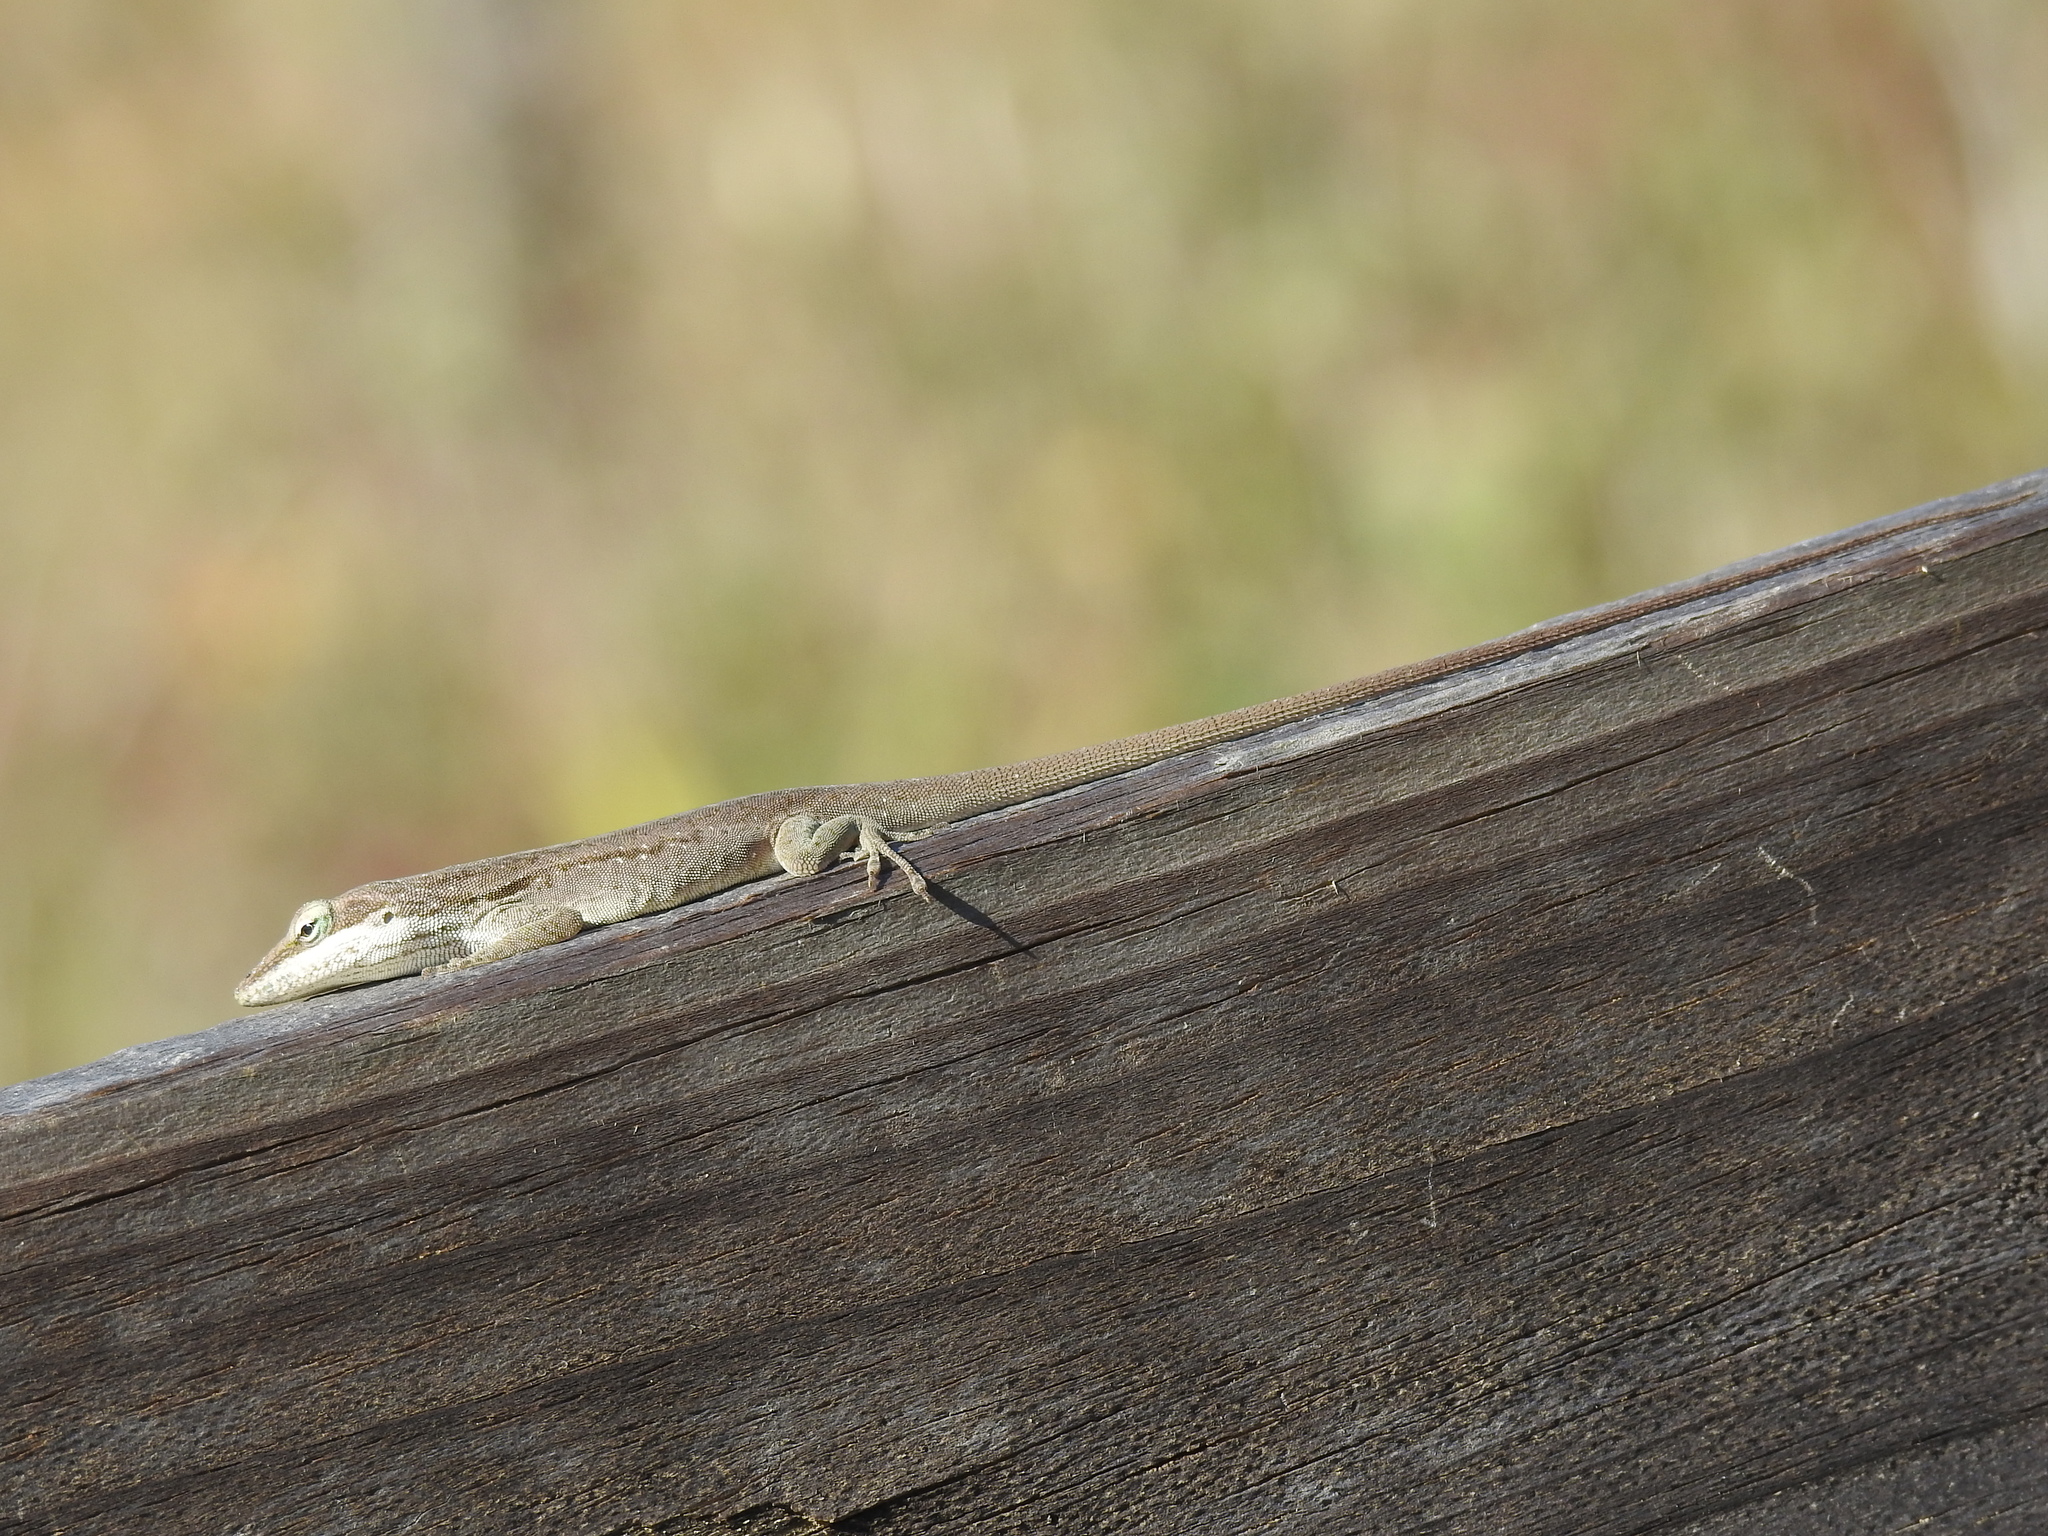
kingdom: Animalia
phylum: Chordata
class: Squamata
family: Dactyloidae
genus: Anolis
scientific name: Anolis carolinensis
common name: Green anole
